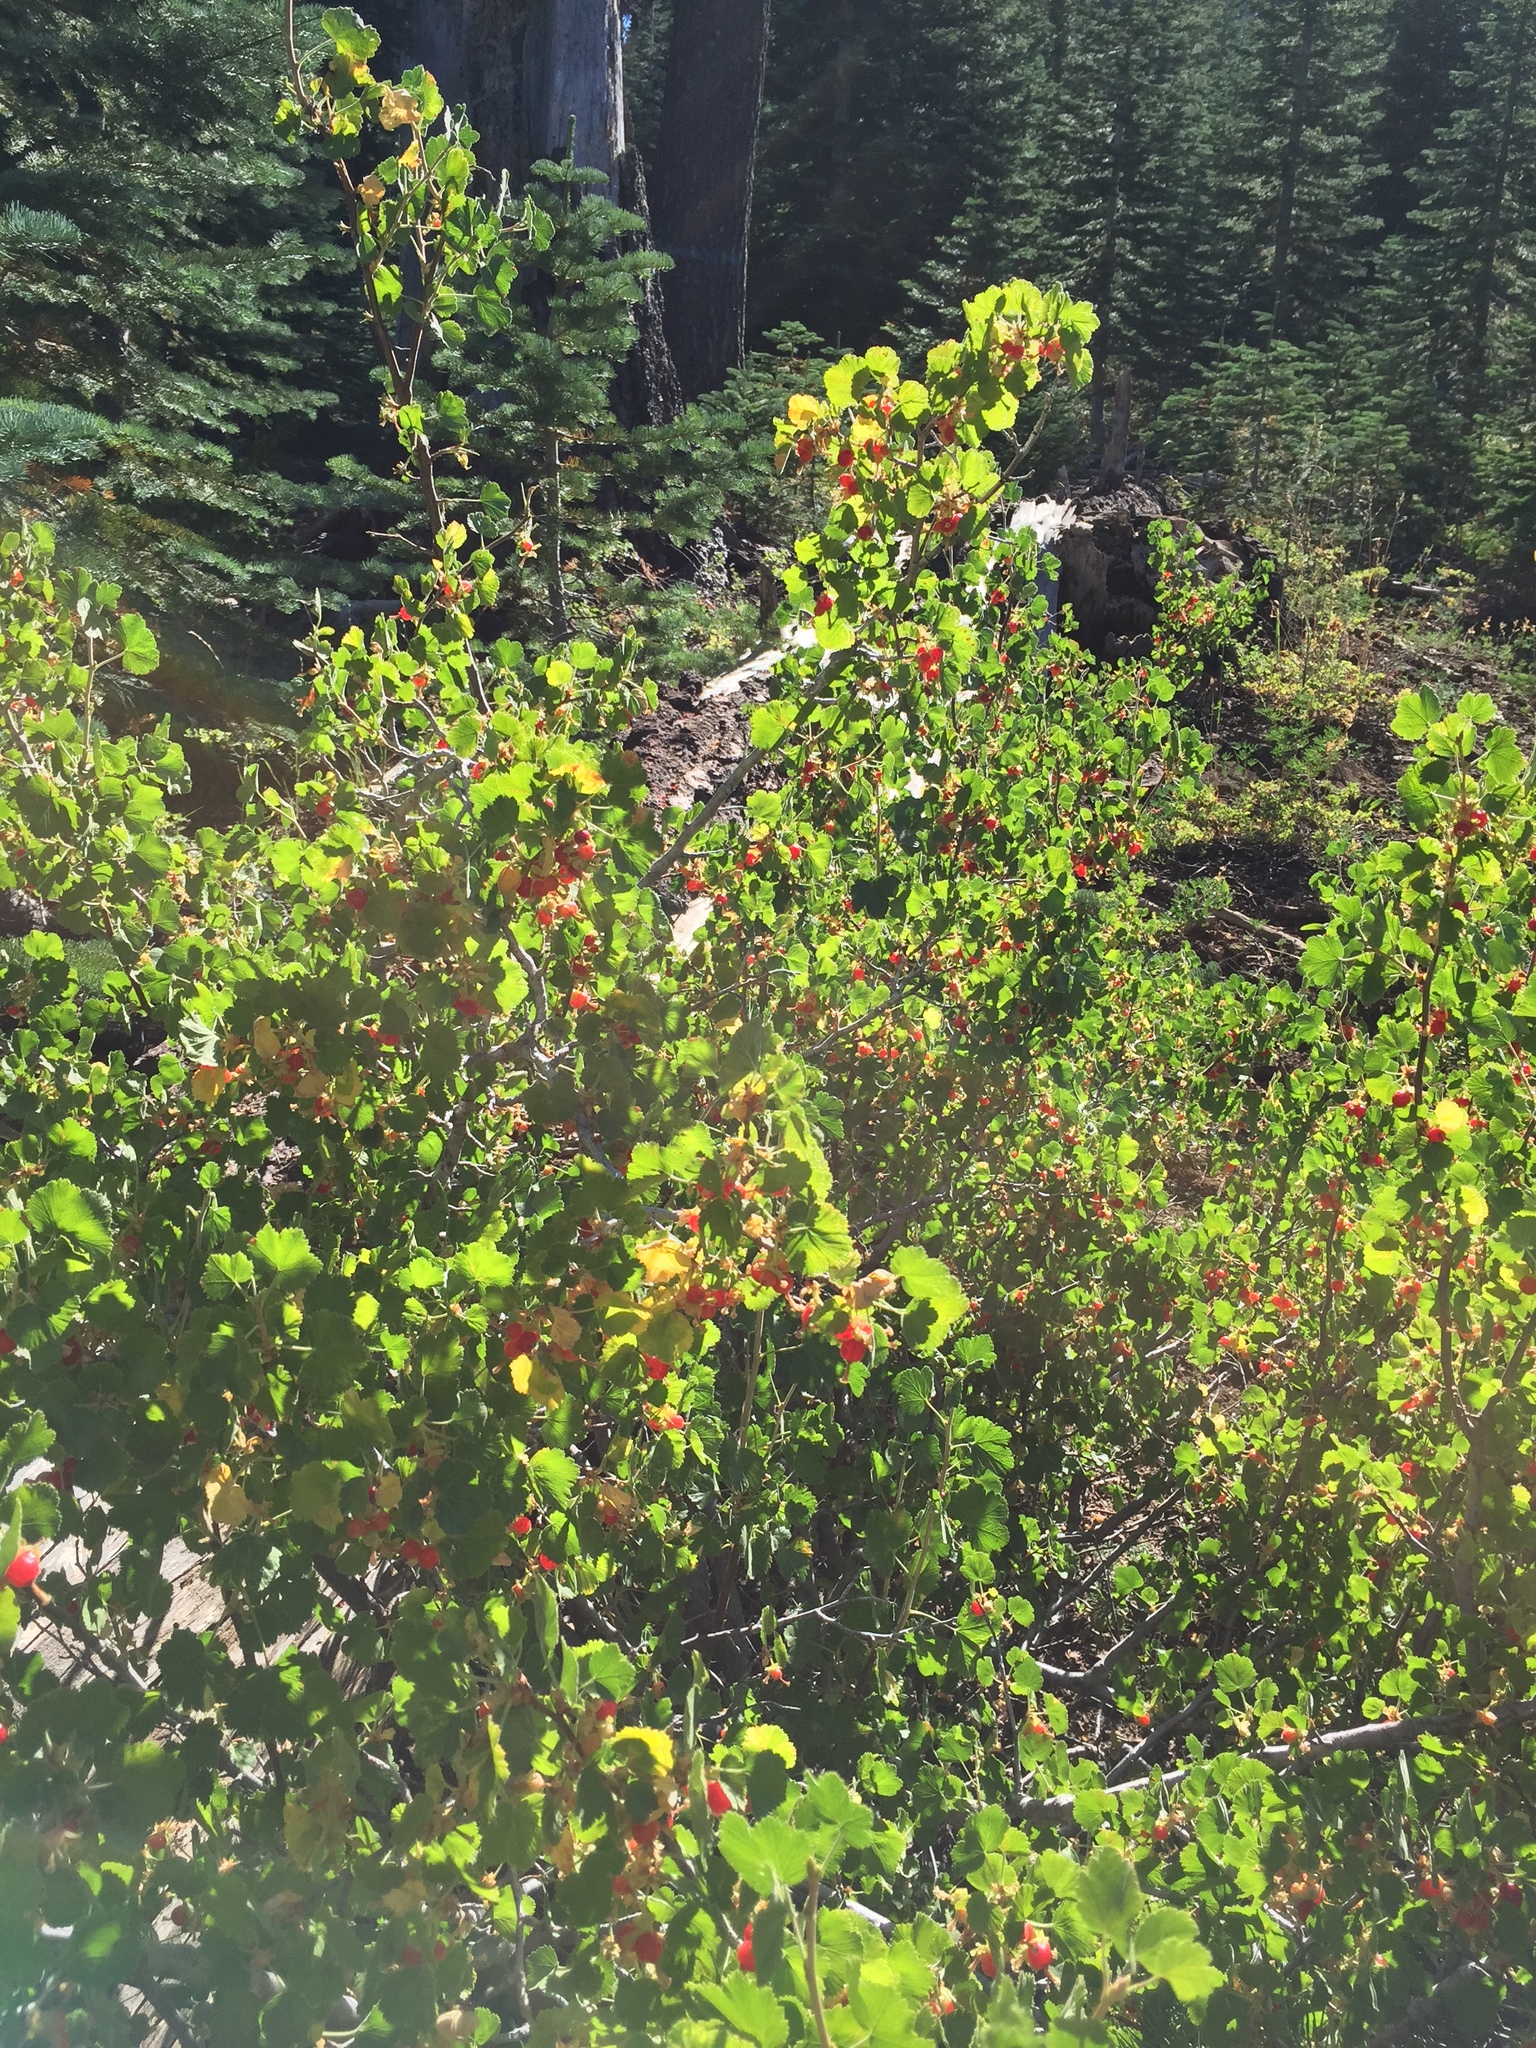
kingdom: Plantae
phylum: Tracheophyta
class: Magnoliopsida
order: Saxifragales
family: Grossulariaceae
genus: Ribes
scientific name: Ribes cereum
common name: Wax currant
